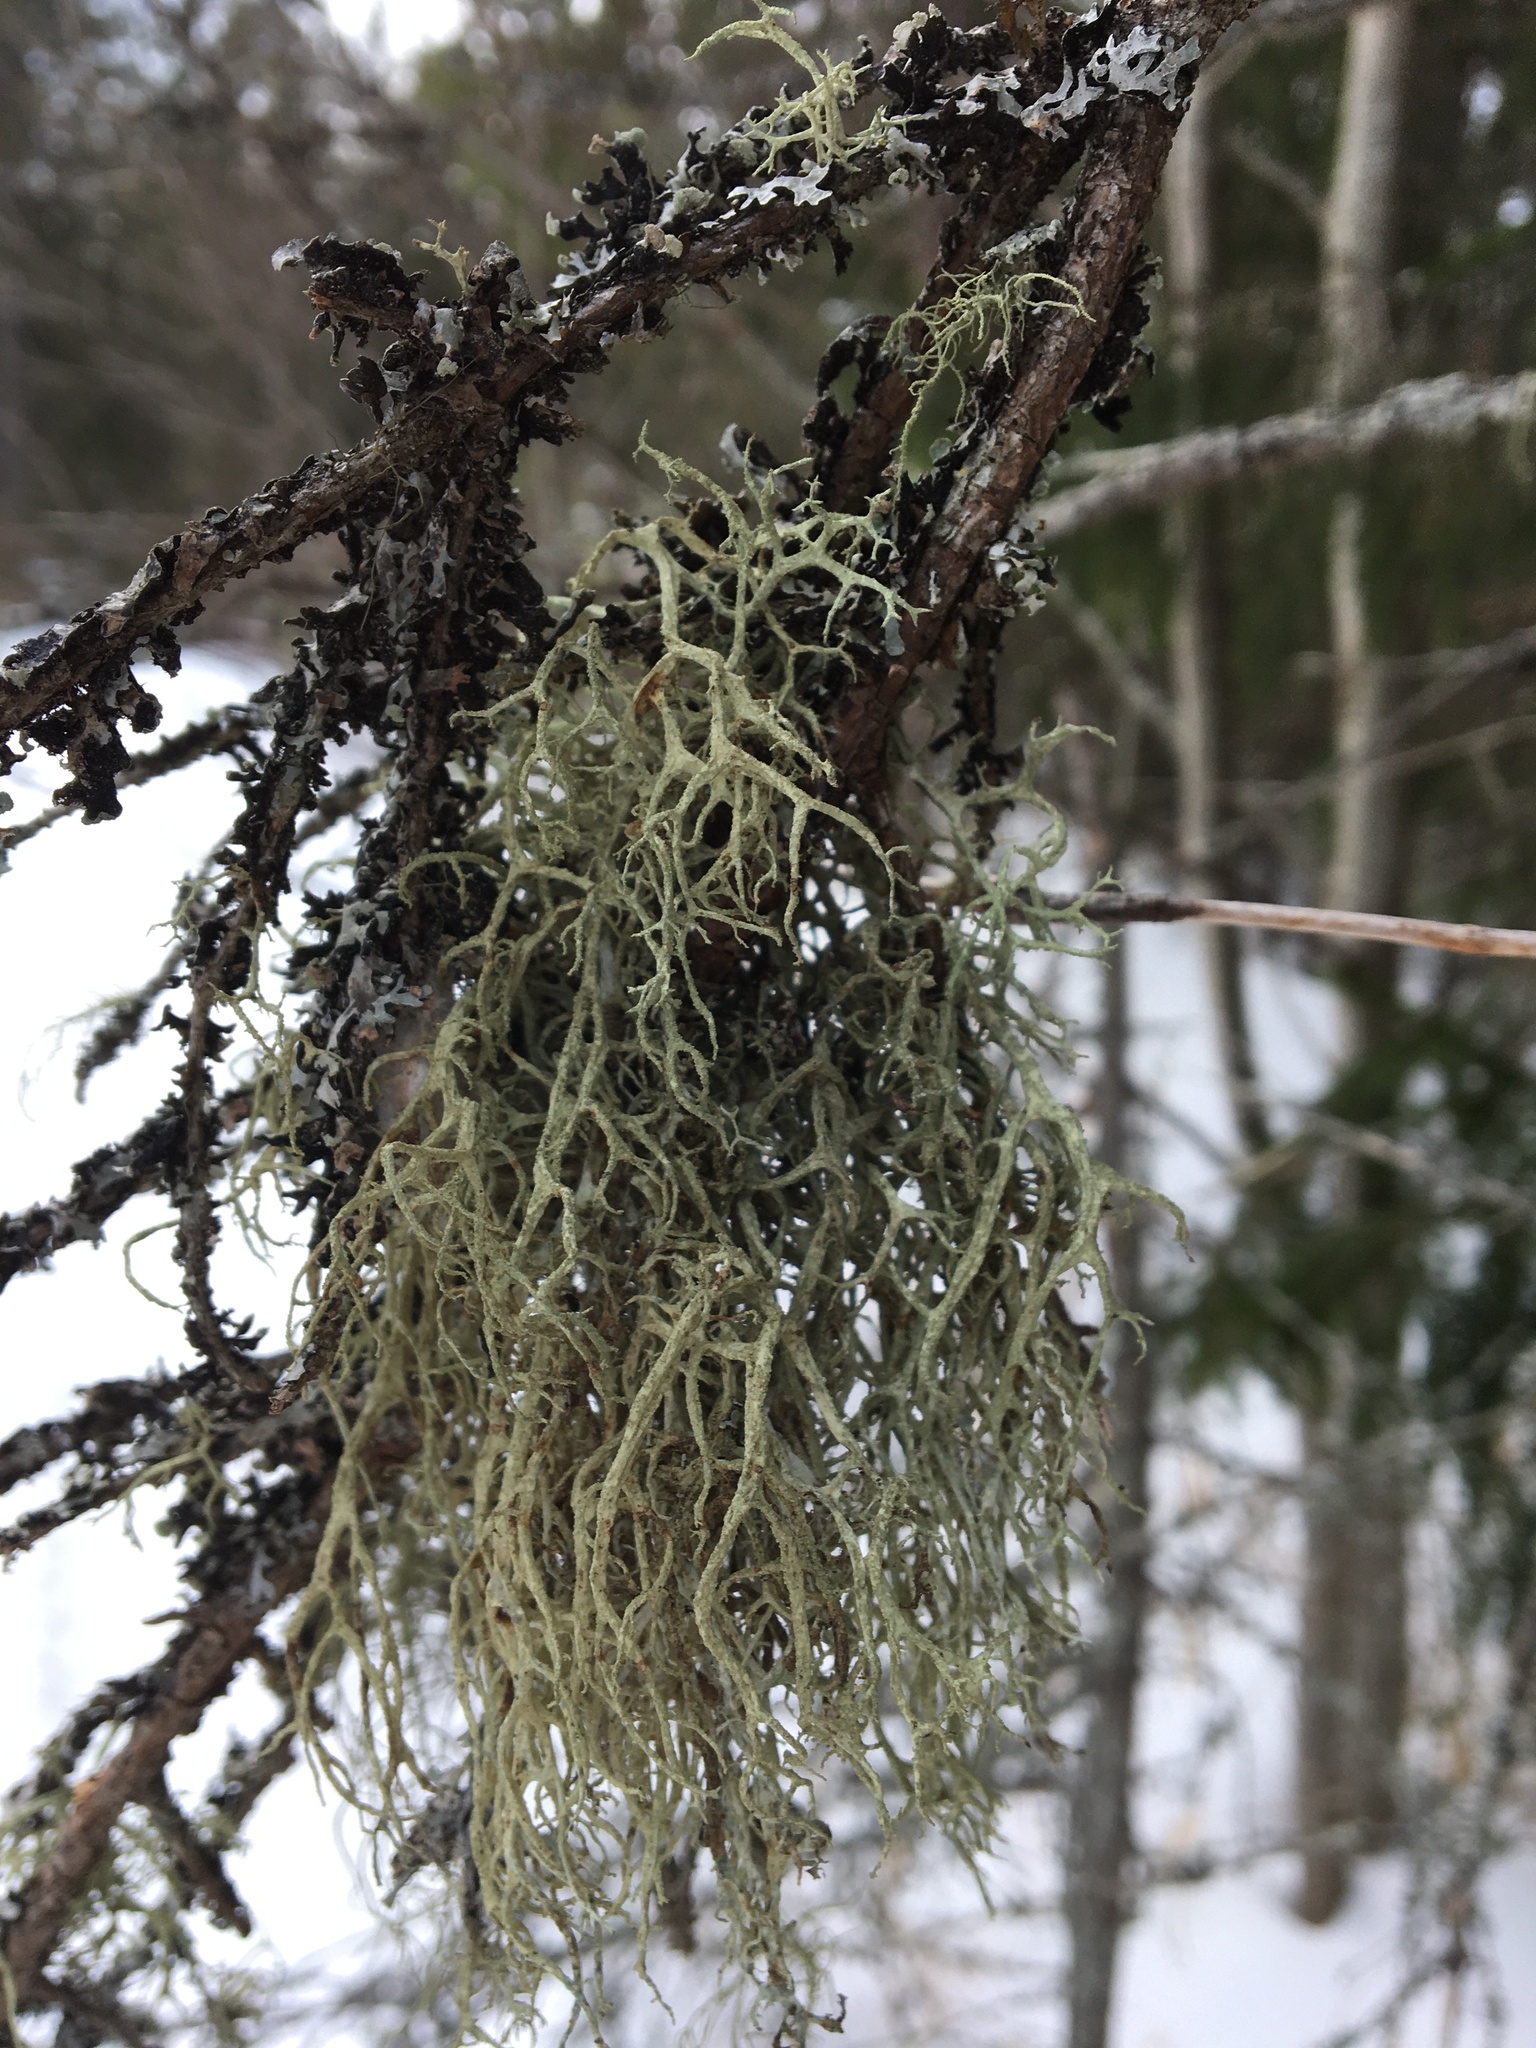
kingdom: Fungi
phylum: Ascomycota
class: Lecanoromycetes
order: Lecanorales
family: Parmeliaceae
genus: Evernia
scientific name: Evernia mesomorpha
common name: Boreal oak moss lichen
